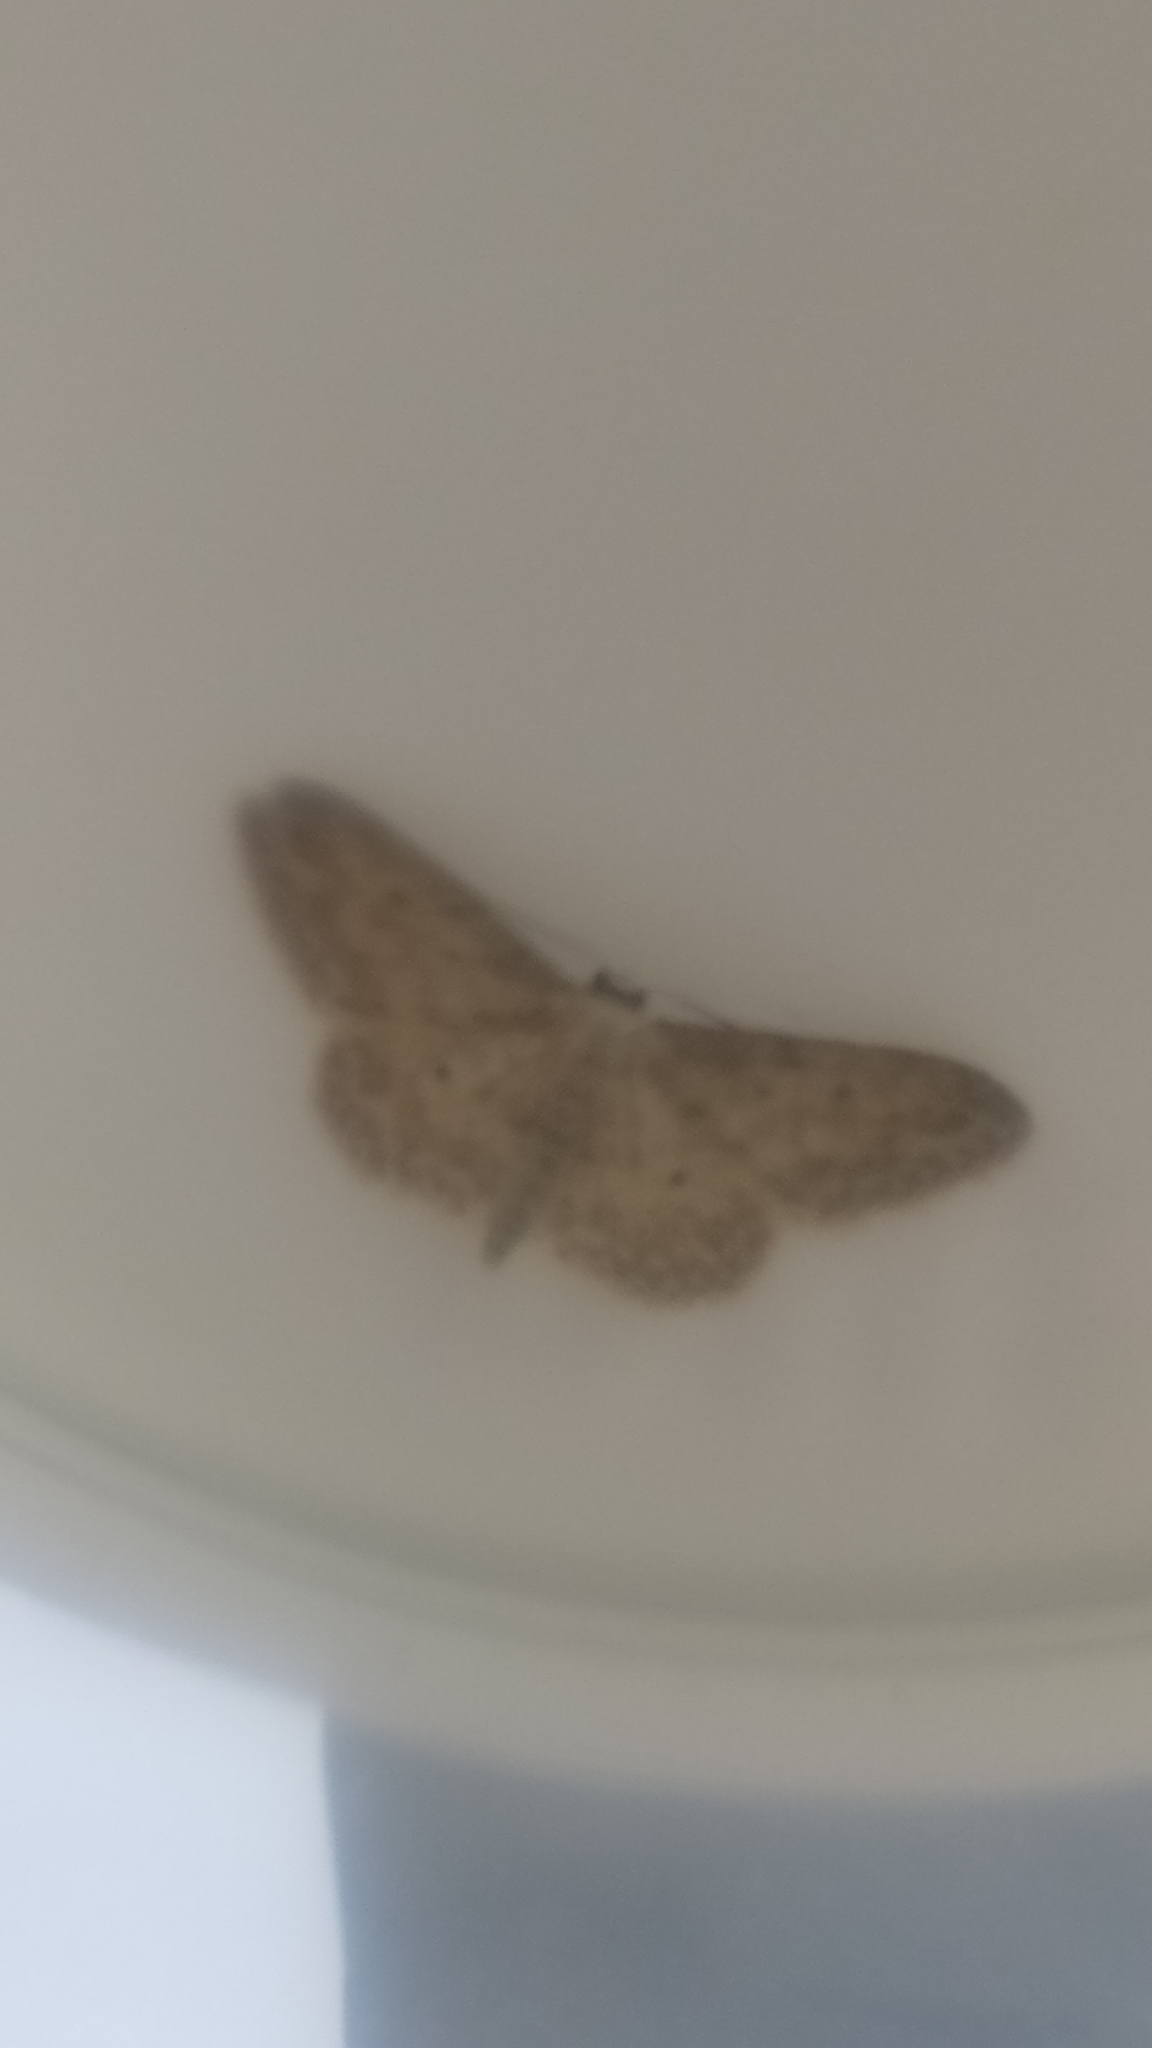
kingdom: Animalia
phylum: Arthropoda
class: Insecta
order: Lepidoptera
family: Geometridae
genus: Idaea
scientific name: Idaea seriata
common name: Small dusty wave
